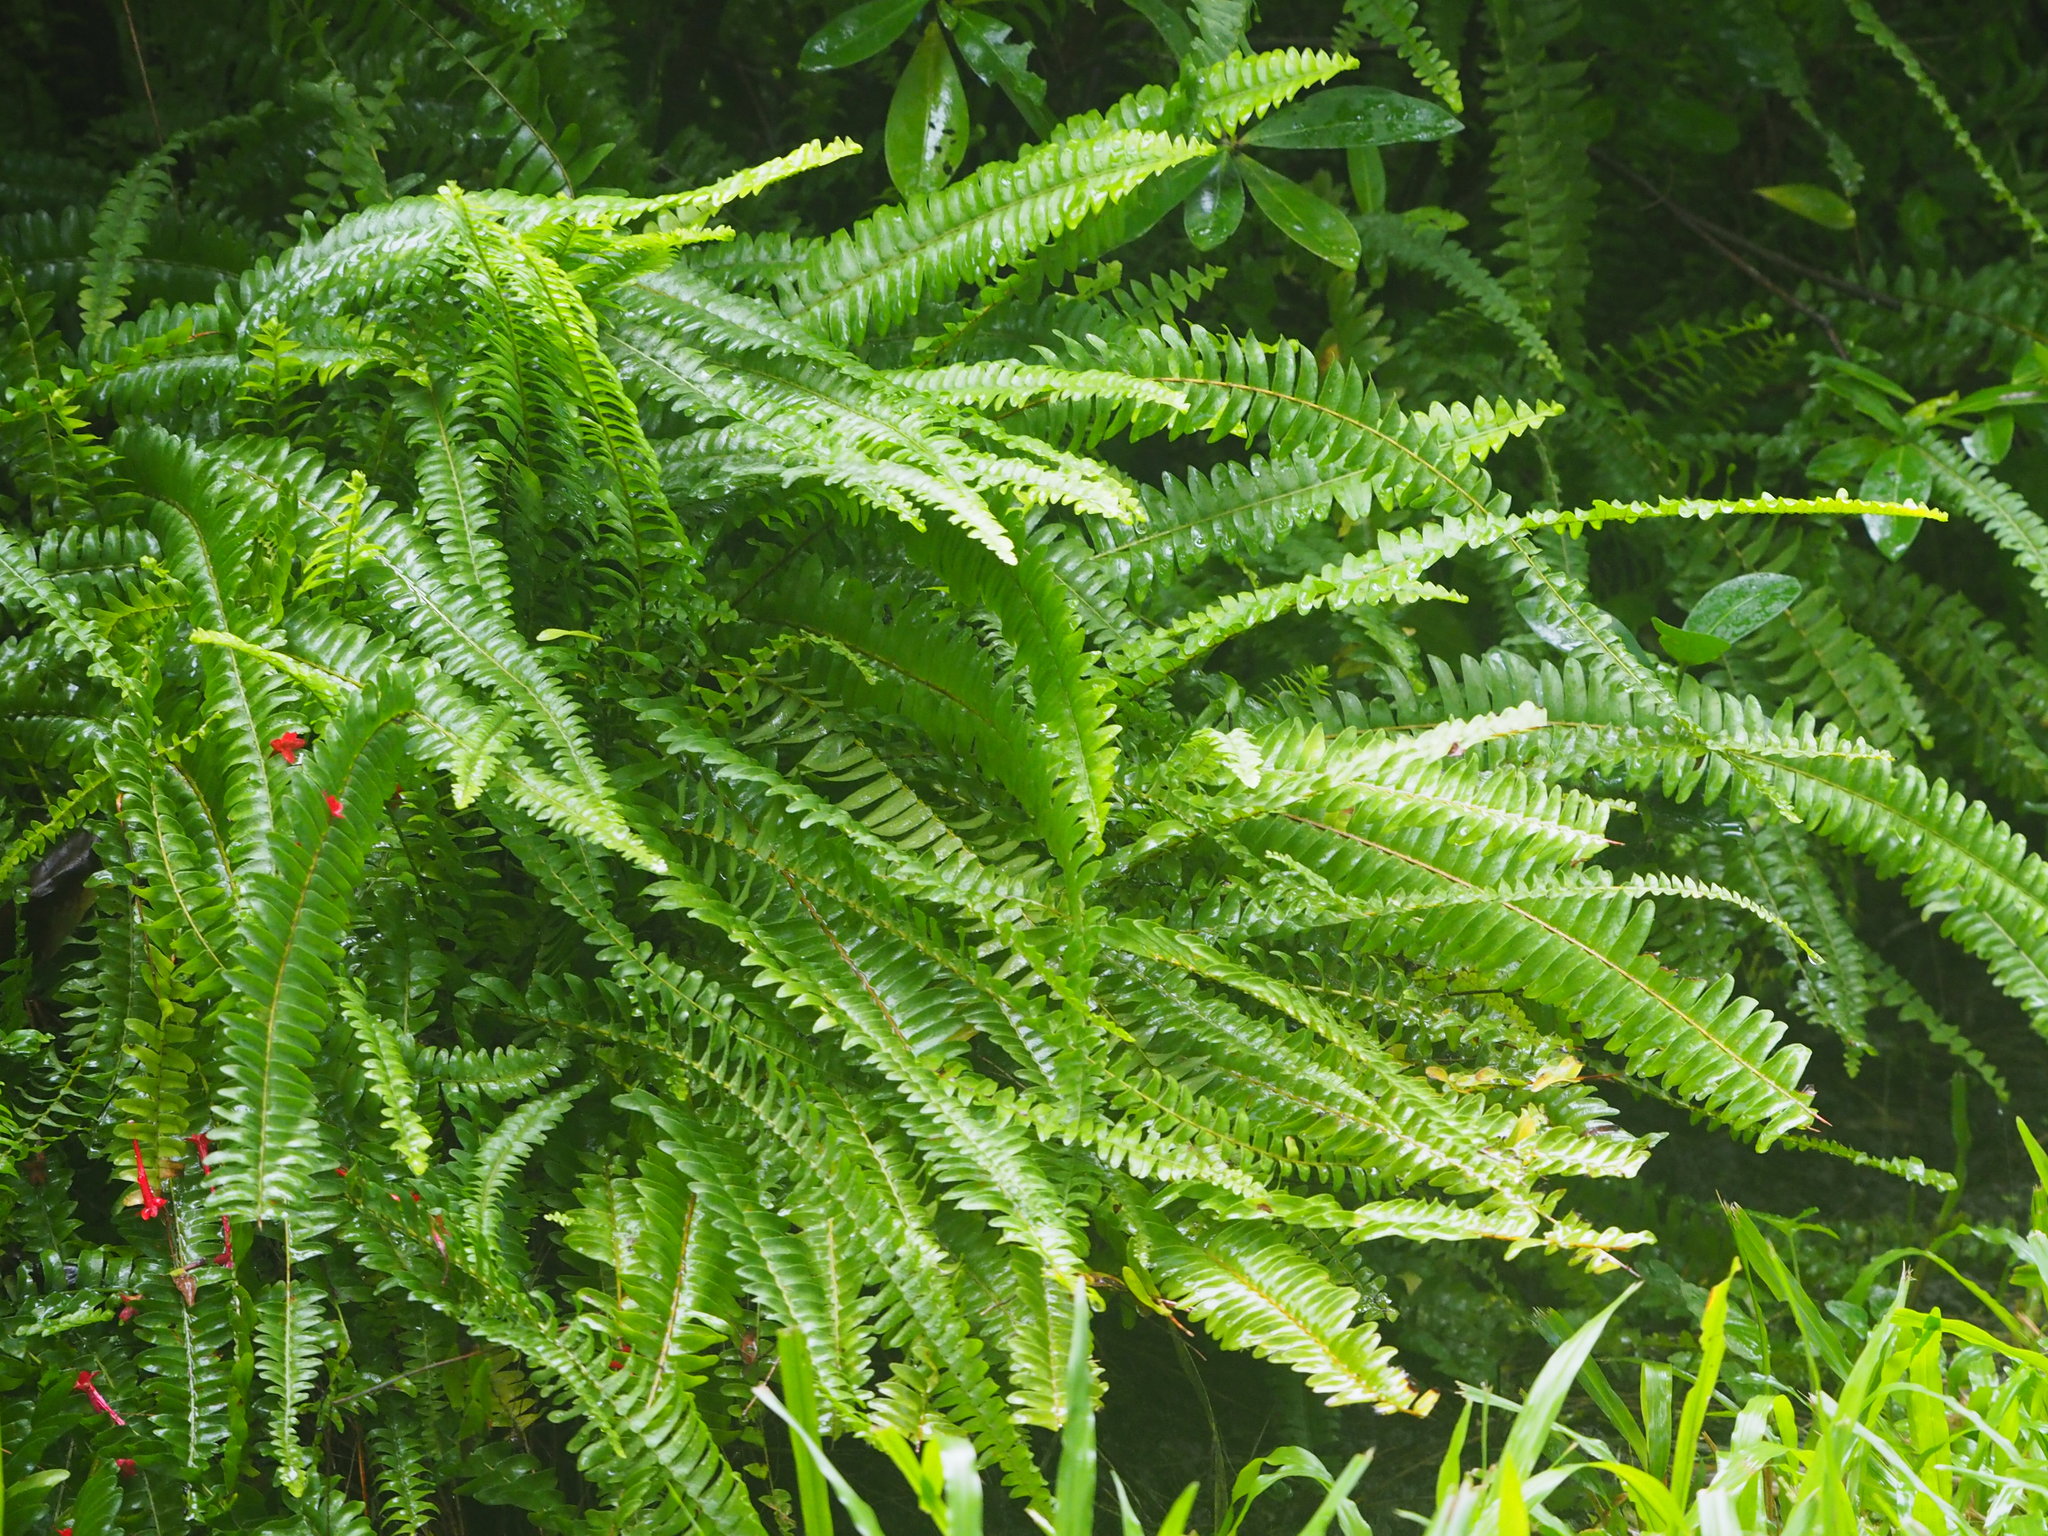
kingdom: Plantae
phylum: Tracheophyta
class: Polypodiopsida
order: Polypodiales
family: Nephrolepidaceae
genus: Nephrolepis
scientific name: Nephrolepis cordifolia
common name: Narrow swordfern
